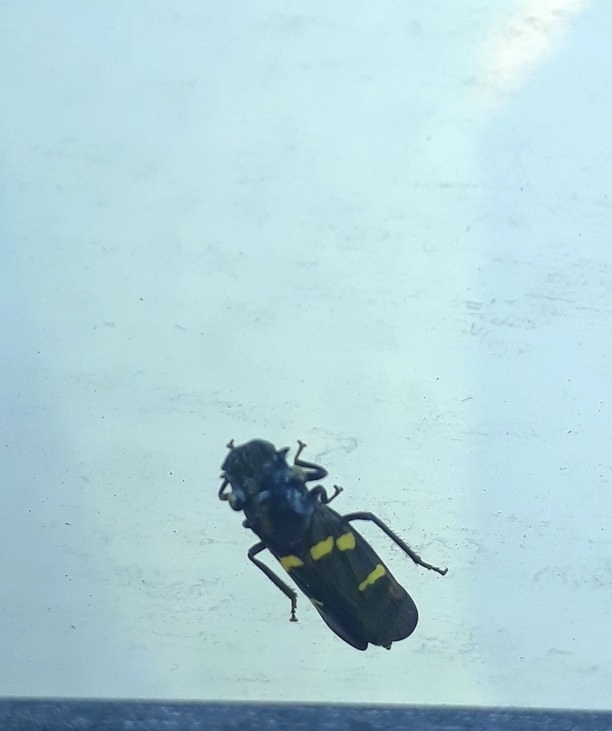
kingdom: Animalia
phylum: Arthropoda
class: Insecta
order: Hemiptera
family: Cicadellidae
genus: Ochrostacta
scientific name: Ochrostacta diadema
